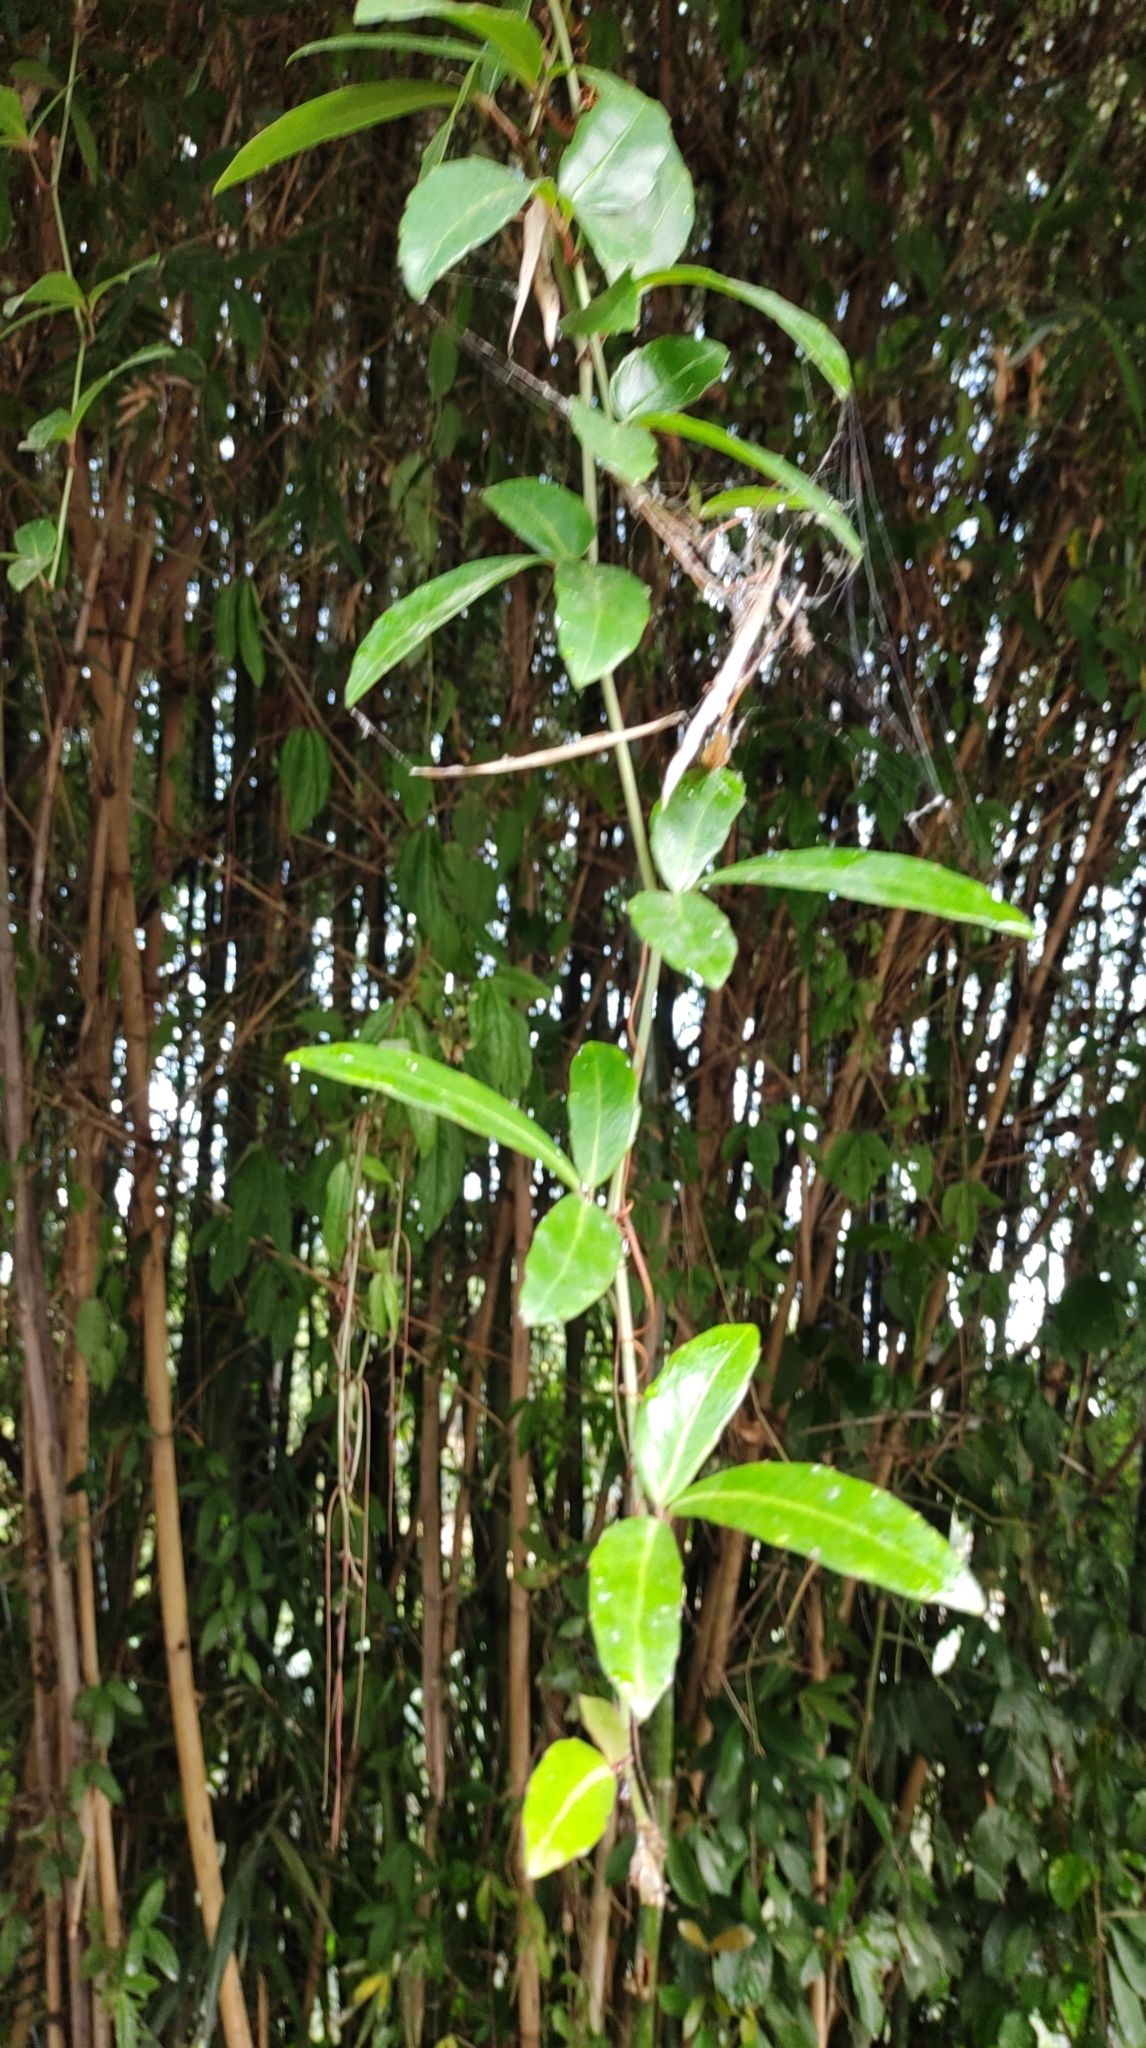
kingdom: Plantae
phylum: Tracheophyta
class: Magnoliopsida
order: Vitales
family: Vitaceae
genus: Tetrastigma
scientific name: Tetrastigma formosanum
